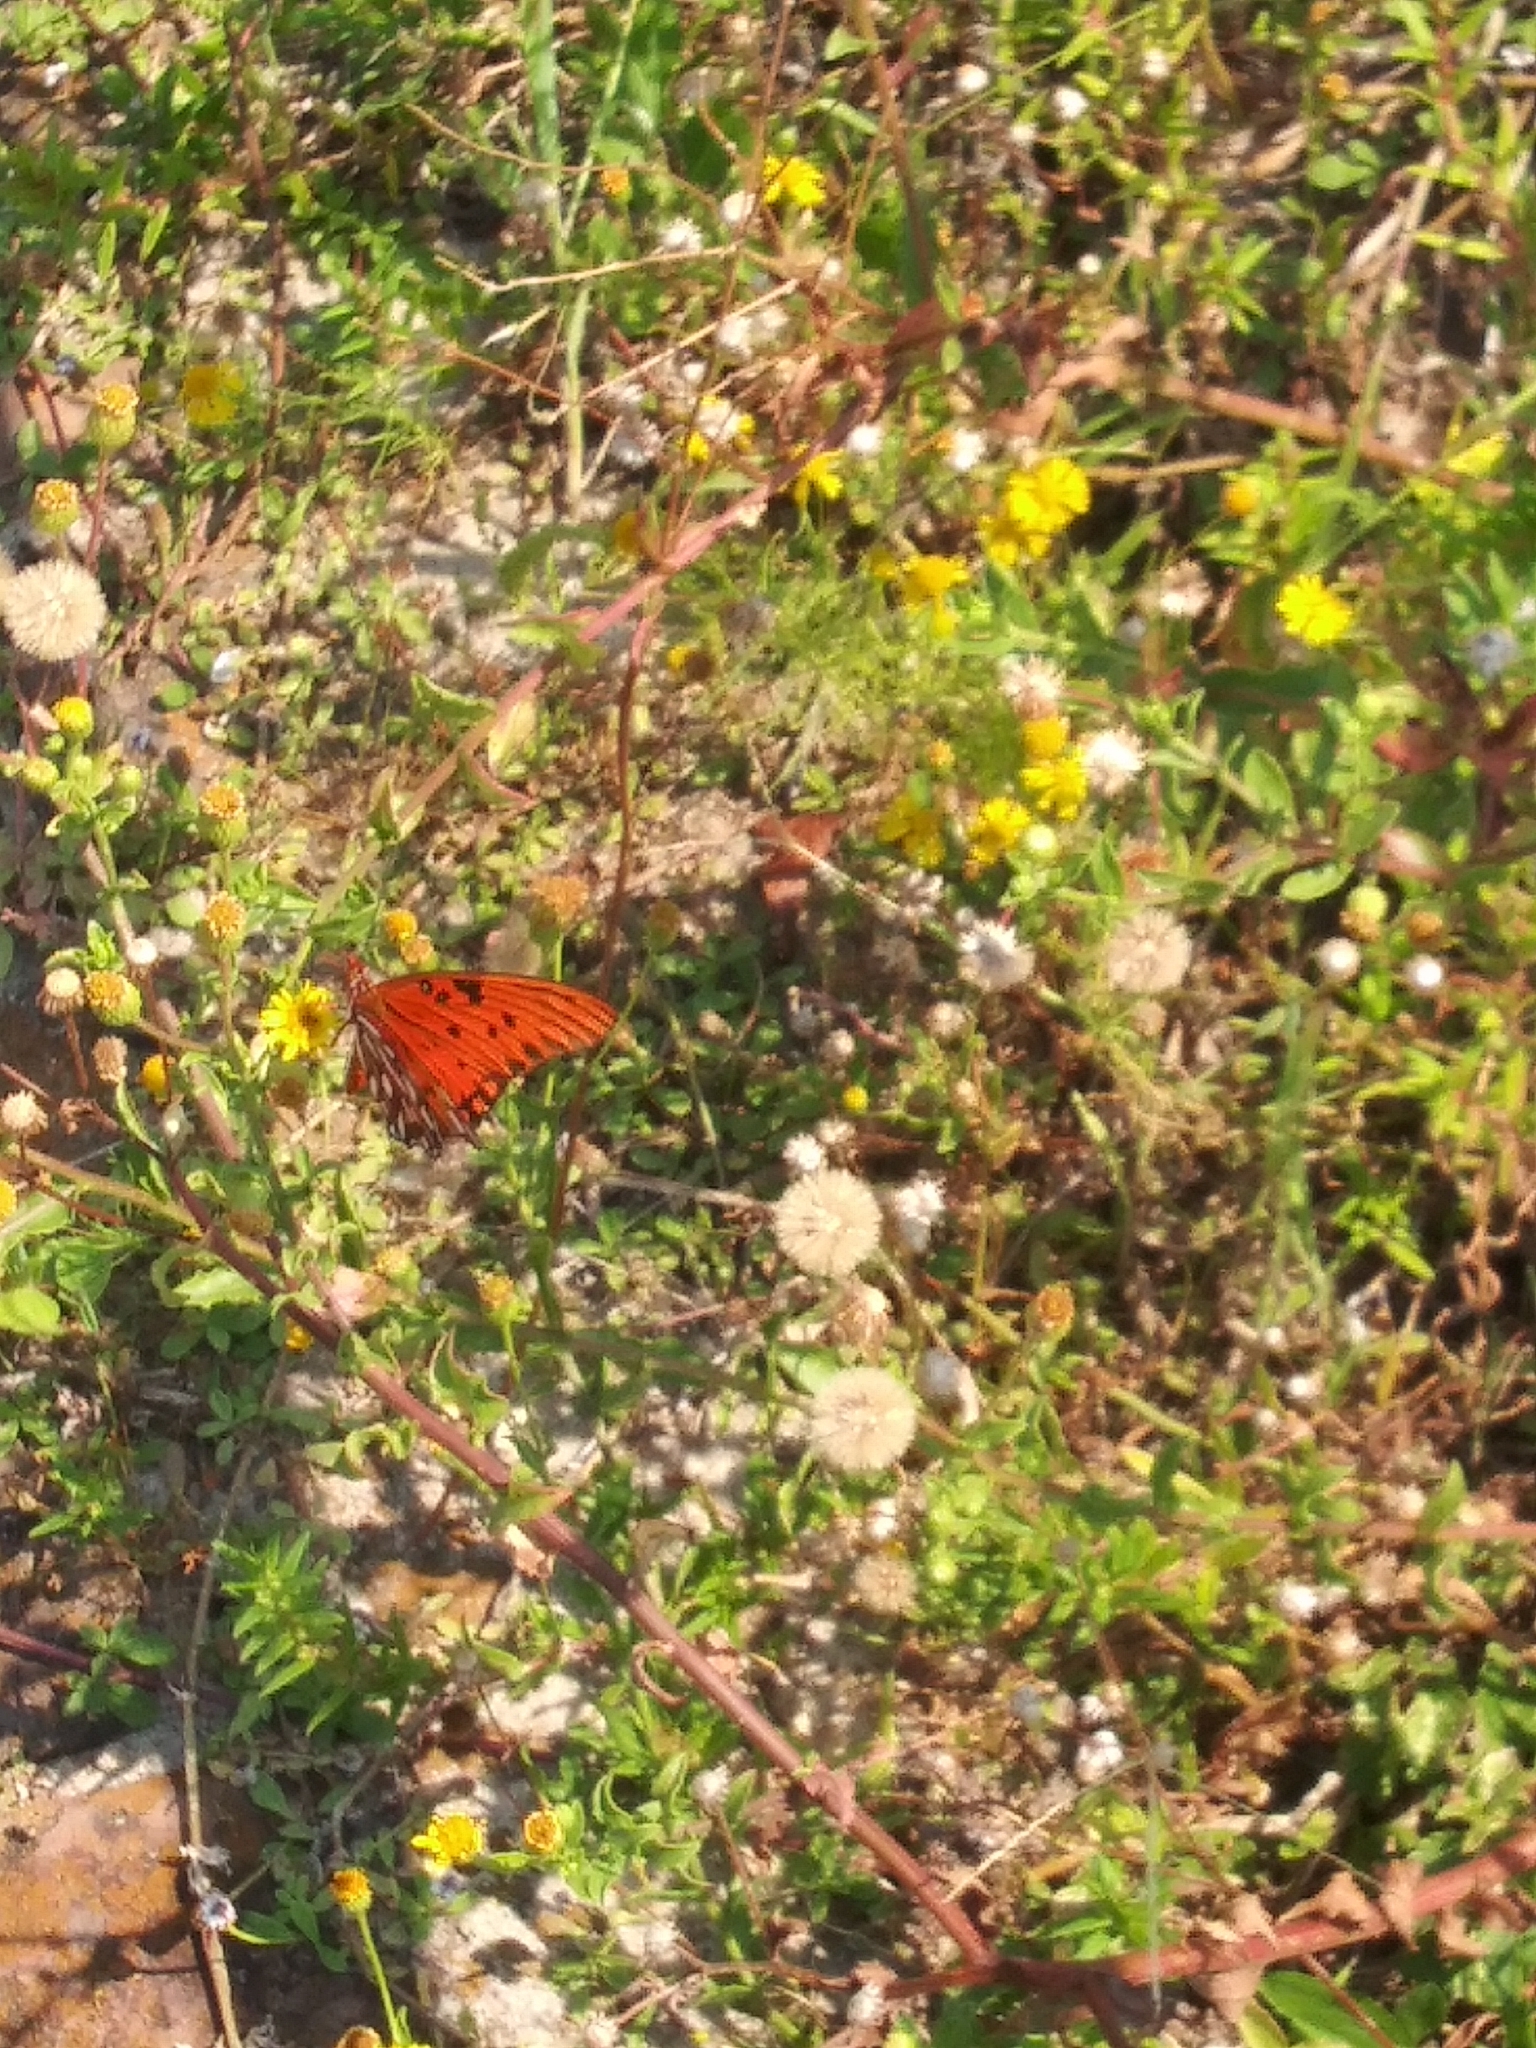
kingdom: Animalia
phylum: Arthropoda
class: Insecta
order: Lepidoptera
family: Nymphalidae
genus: Dione
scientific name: Dione vanillae
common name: Gulf fritillary
